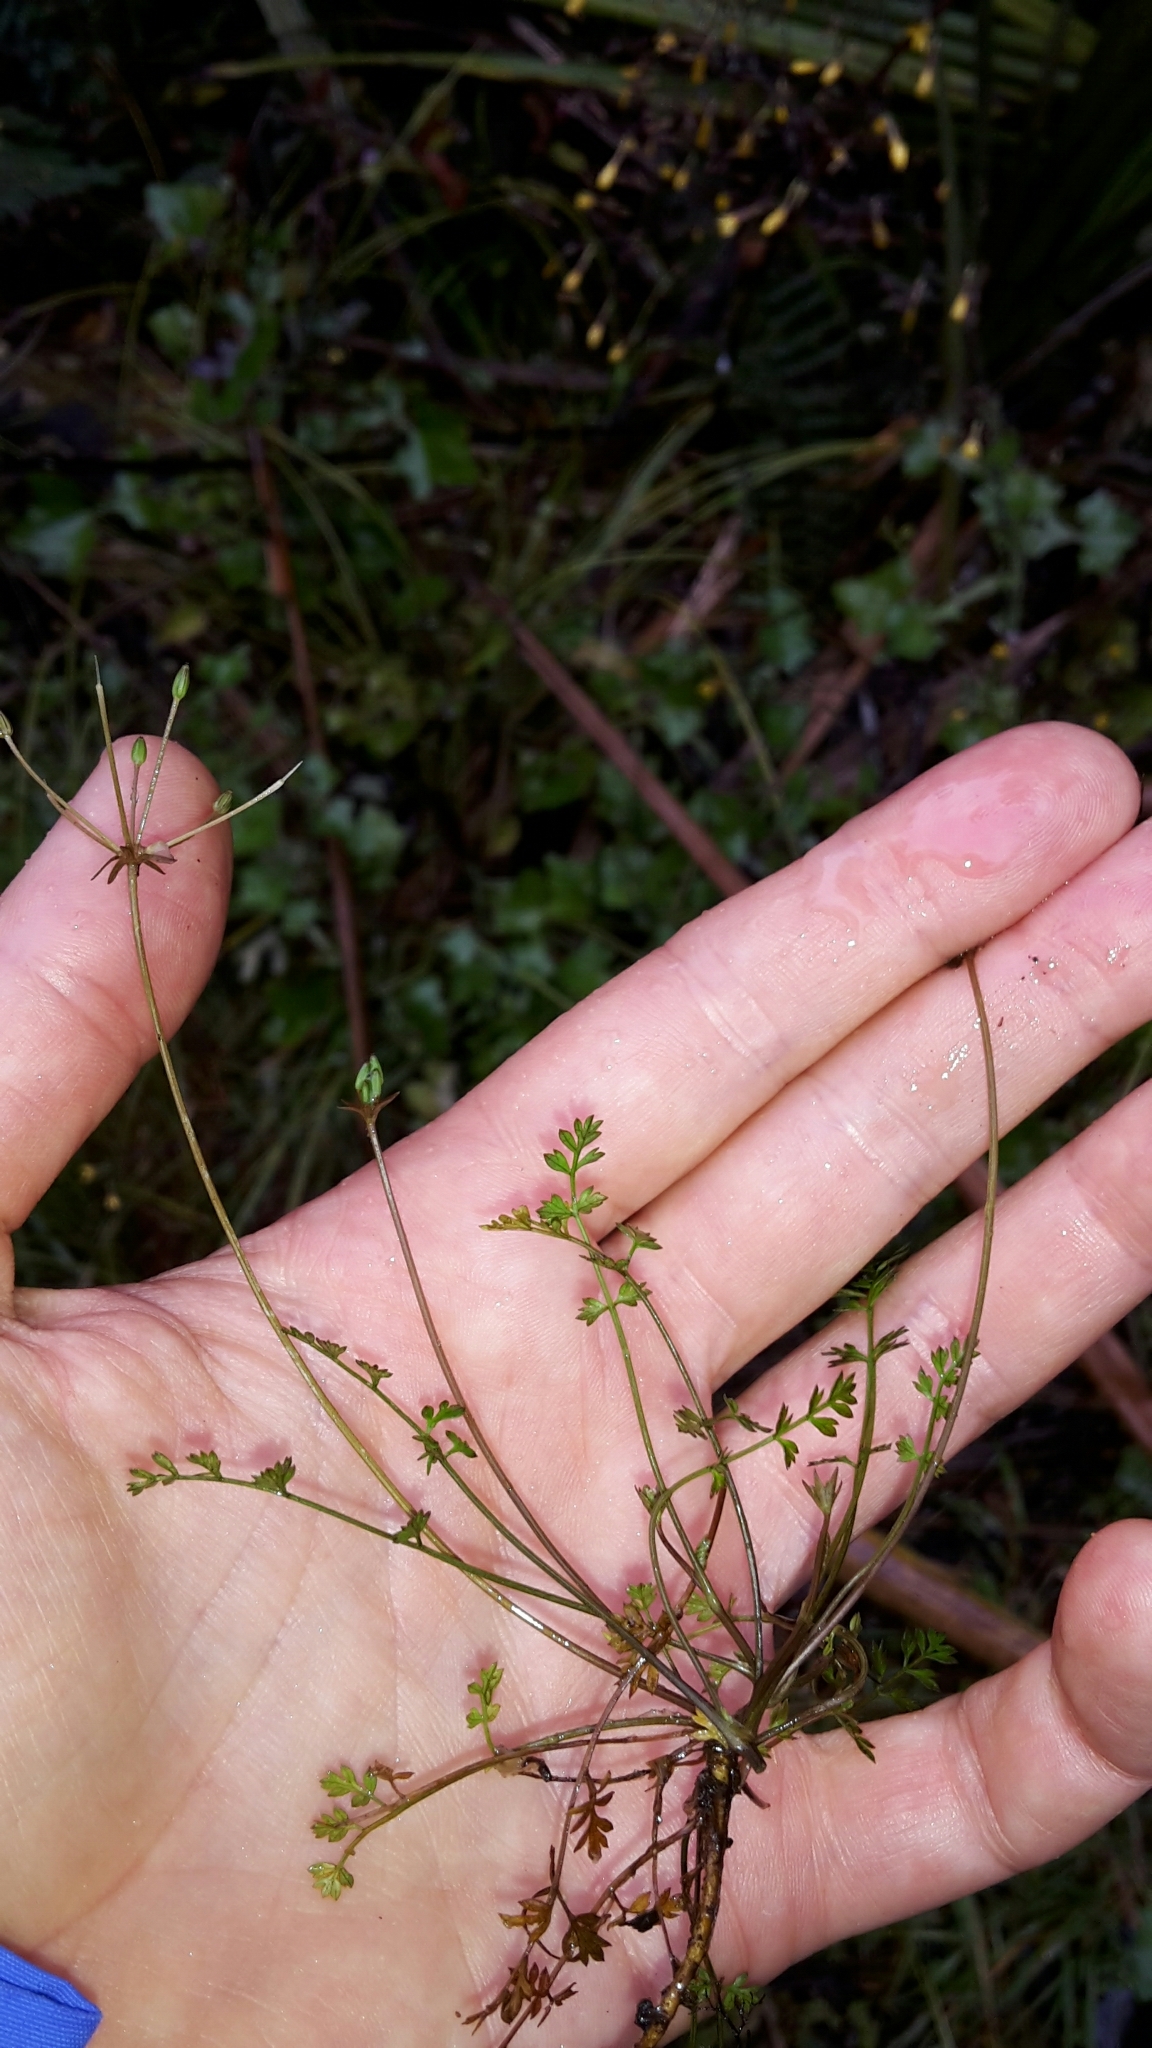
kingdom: Plantae
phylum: Tracheophyta
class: Magnoliopsida
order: Apiales
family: Apiaceae
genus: Chaerophyllum
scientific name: Chaerophyllum ramosum
